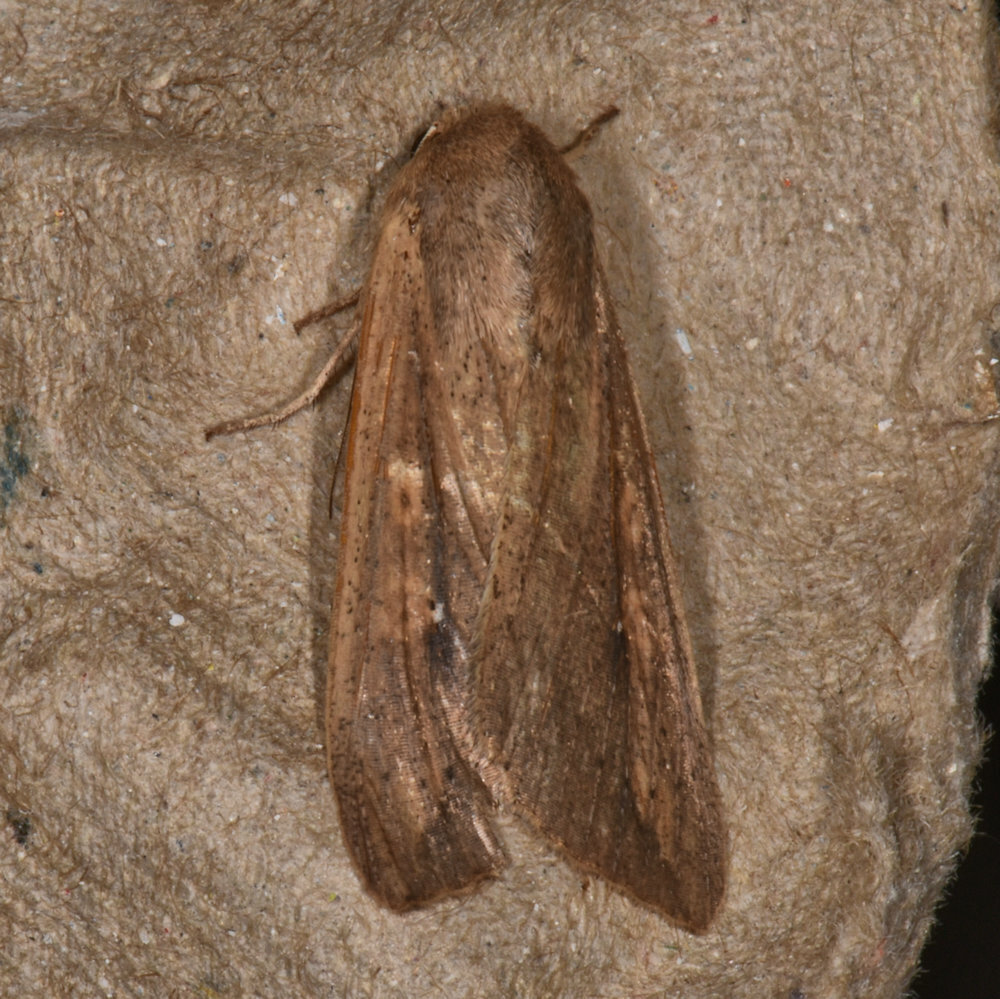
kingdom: Animalia
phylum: Arthropoda
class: Insecta
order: Lepidoptera
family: Noctuidae
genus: Mythimna
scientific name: Mythimna unipuncta
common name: White-speck
